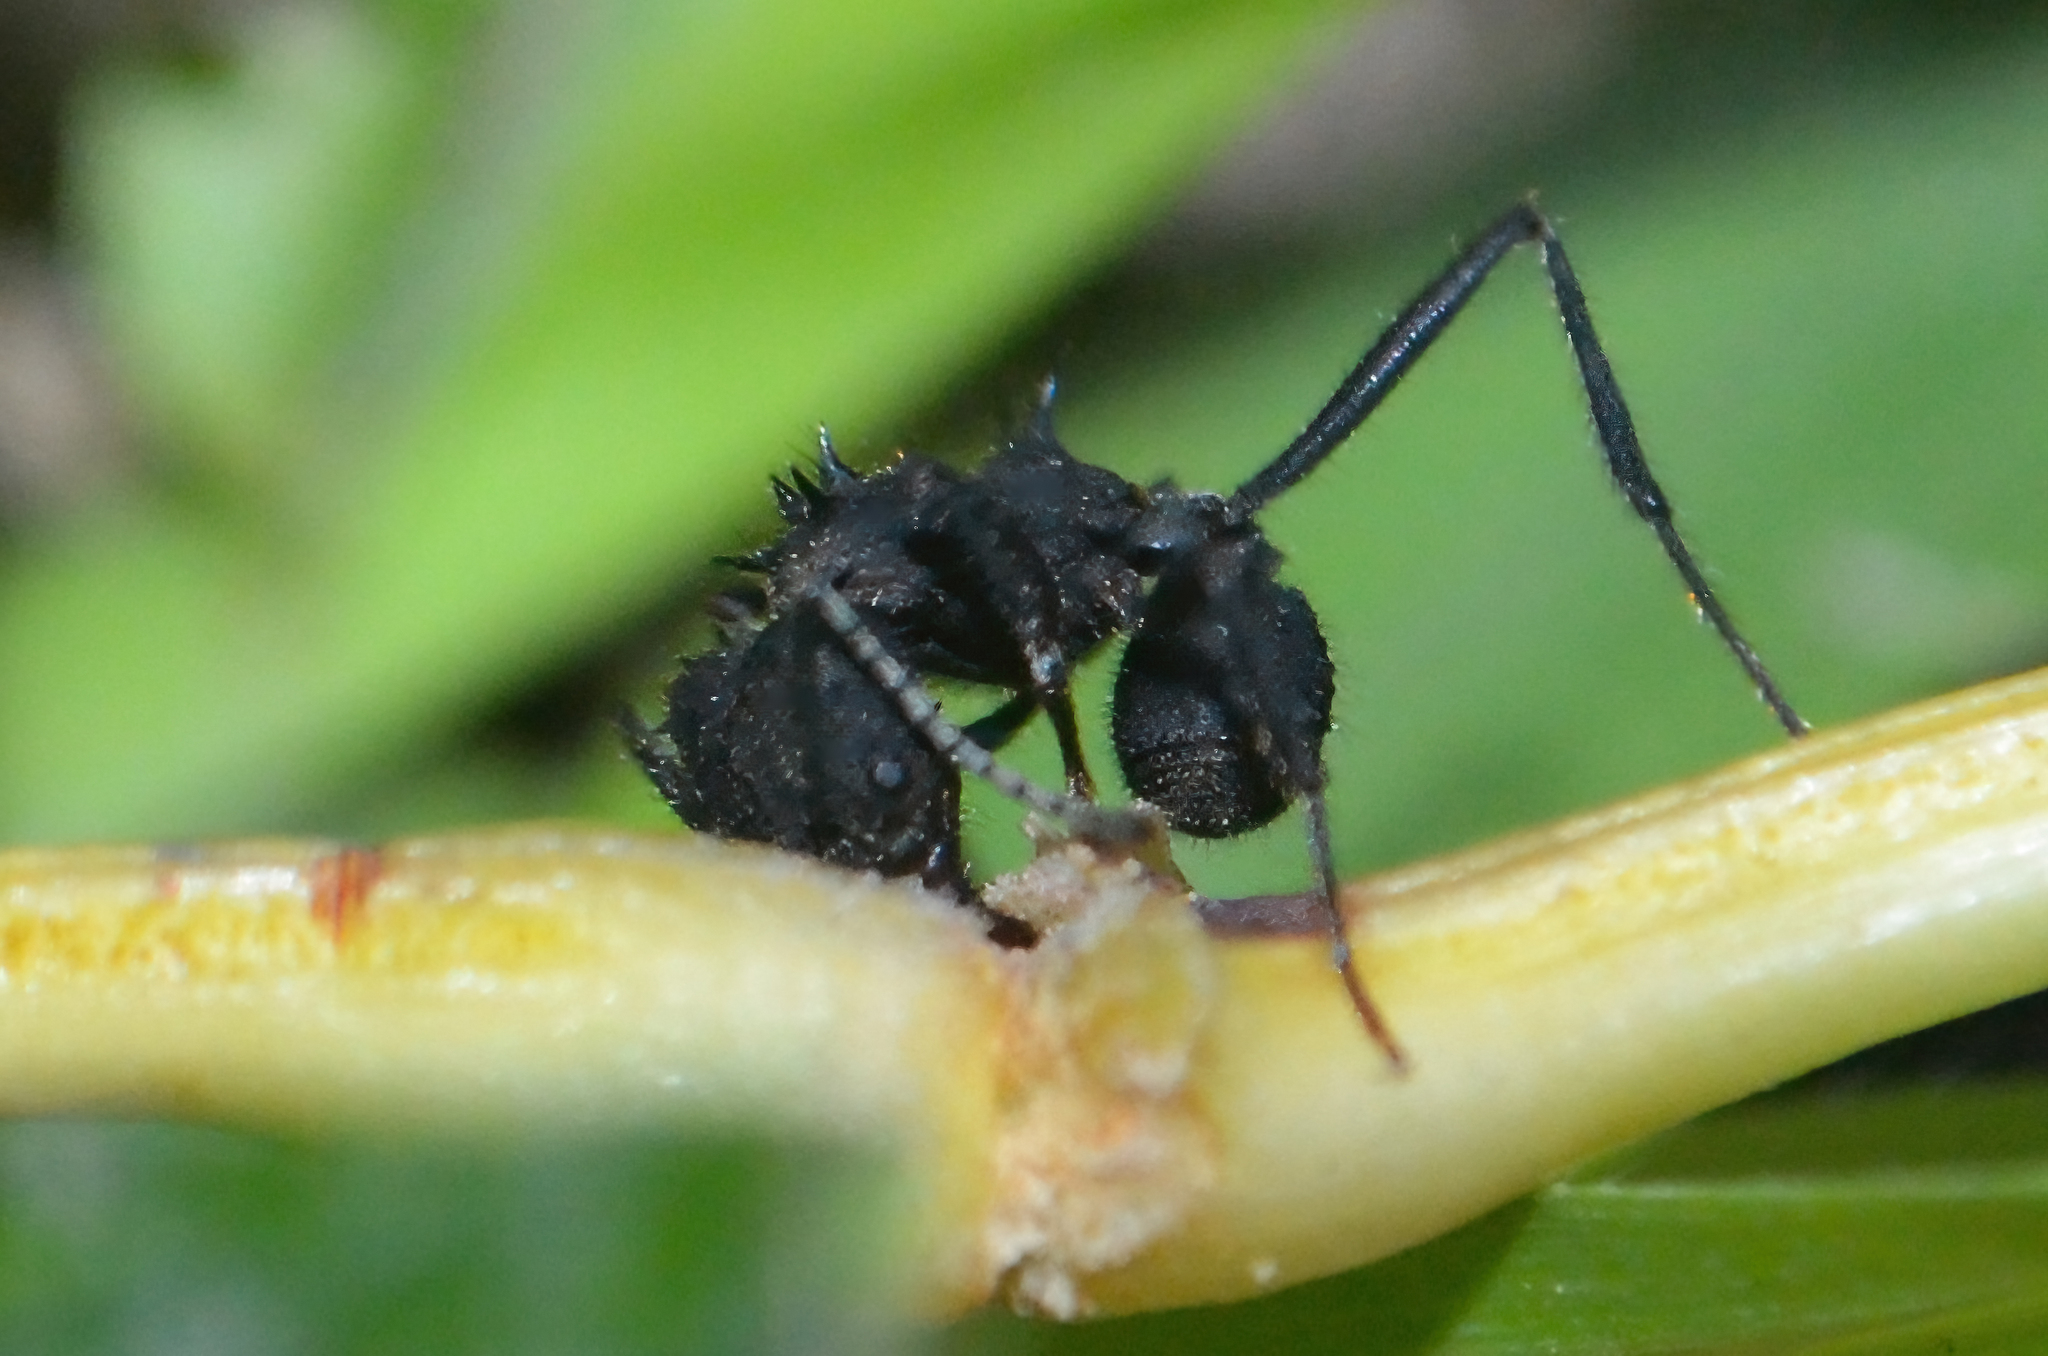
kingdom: Animalia
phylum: Arthropoda
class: Insecta
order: Hymenoptera
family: Formicidae
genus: Acromyrmex
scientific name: Acromyrmex
